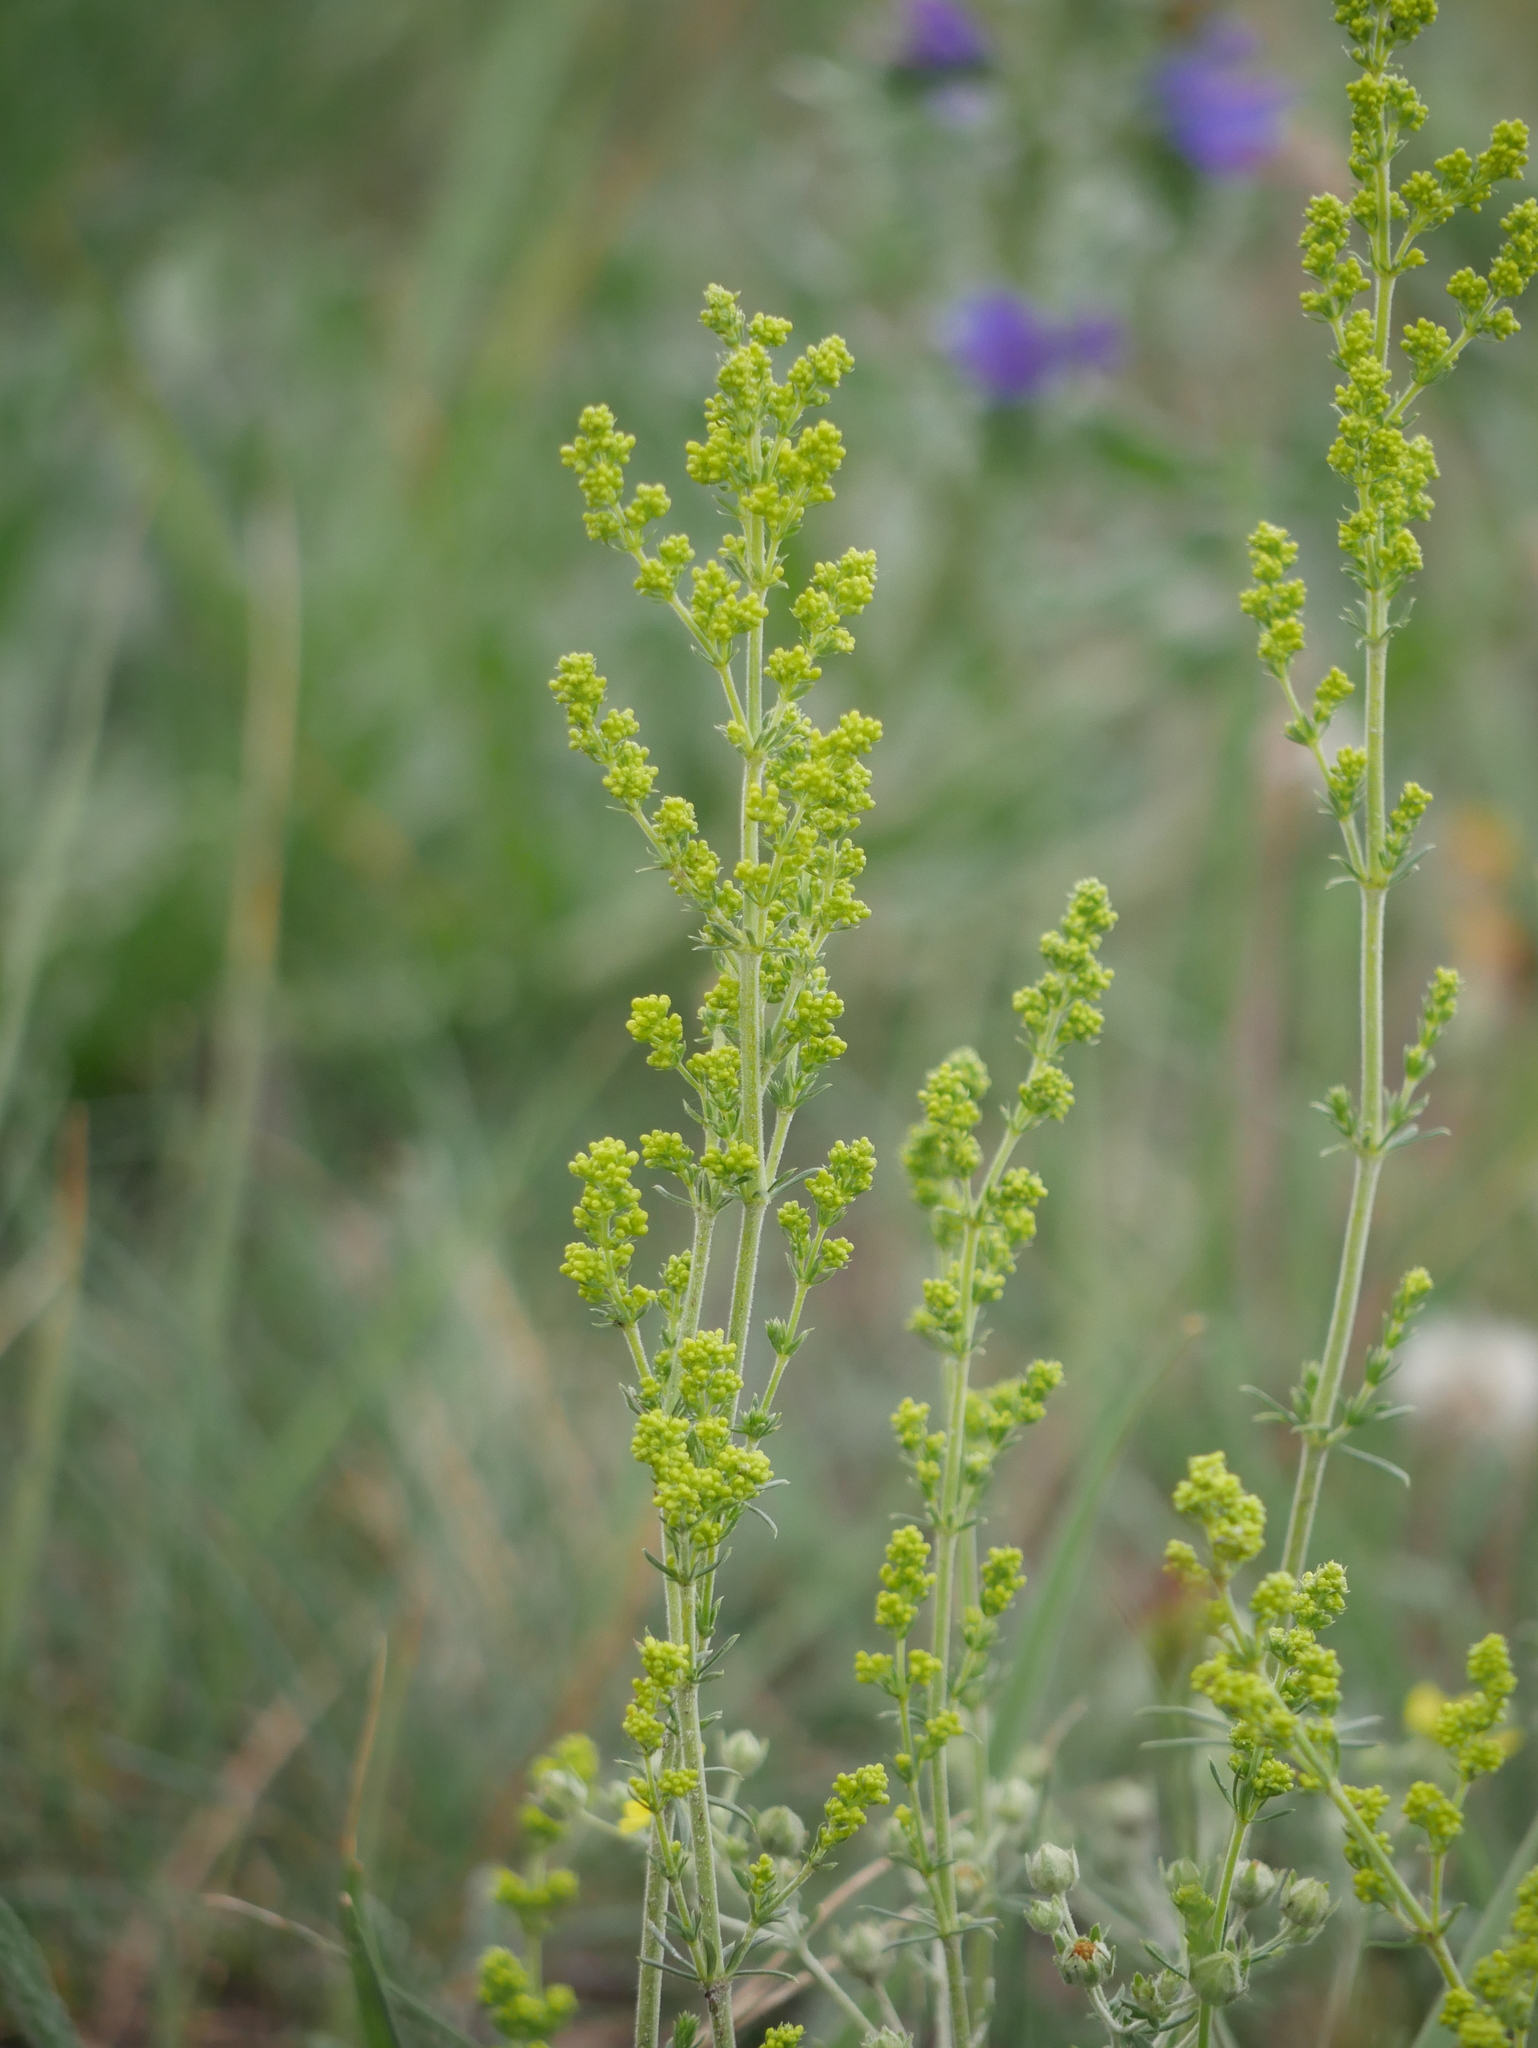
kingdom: Plantae
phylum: Tracheophyta
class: Magnoliopsida
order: Gentianales
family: Rubiaceae
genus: Galium
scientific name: Galium verum
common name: Lady's bedstraw
